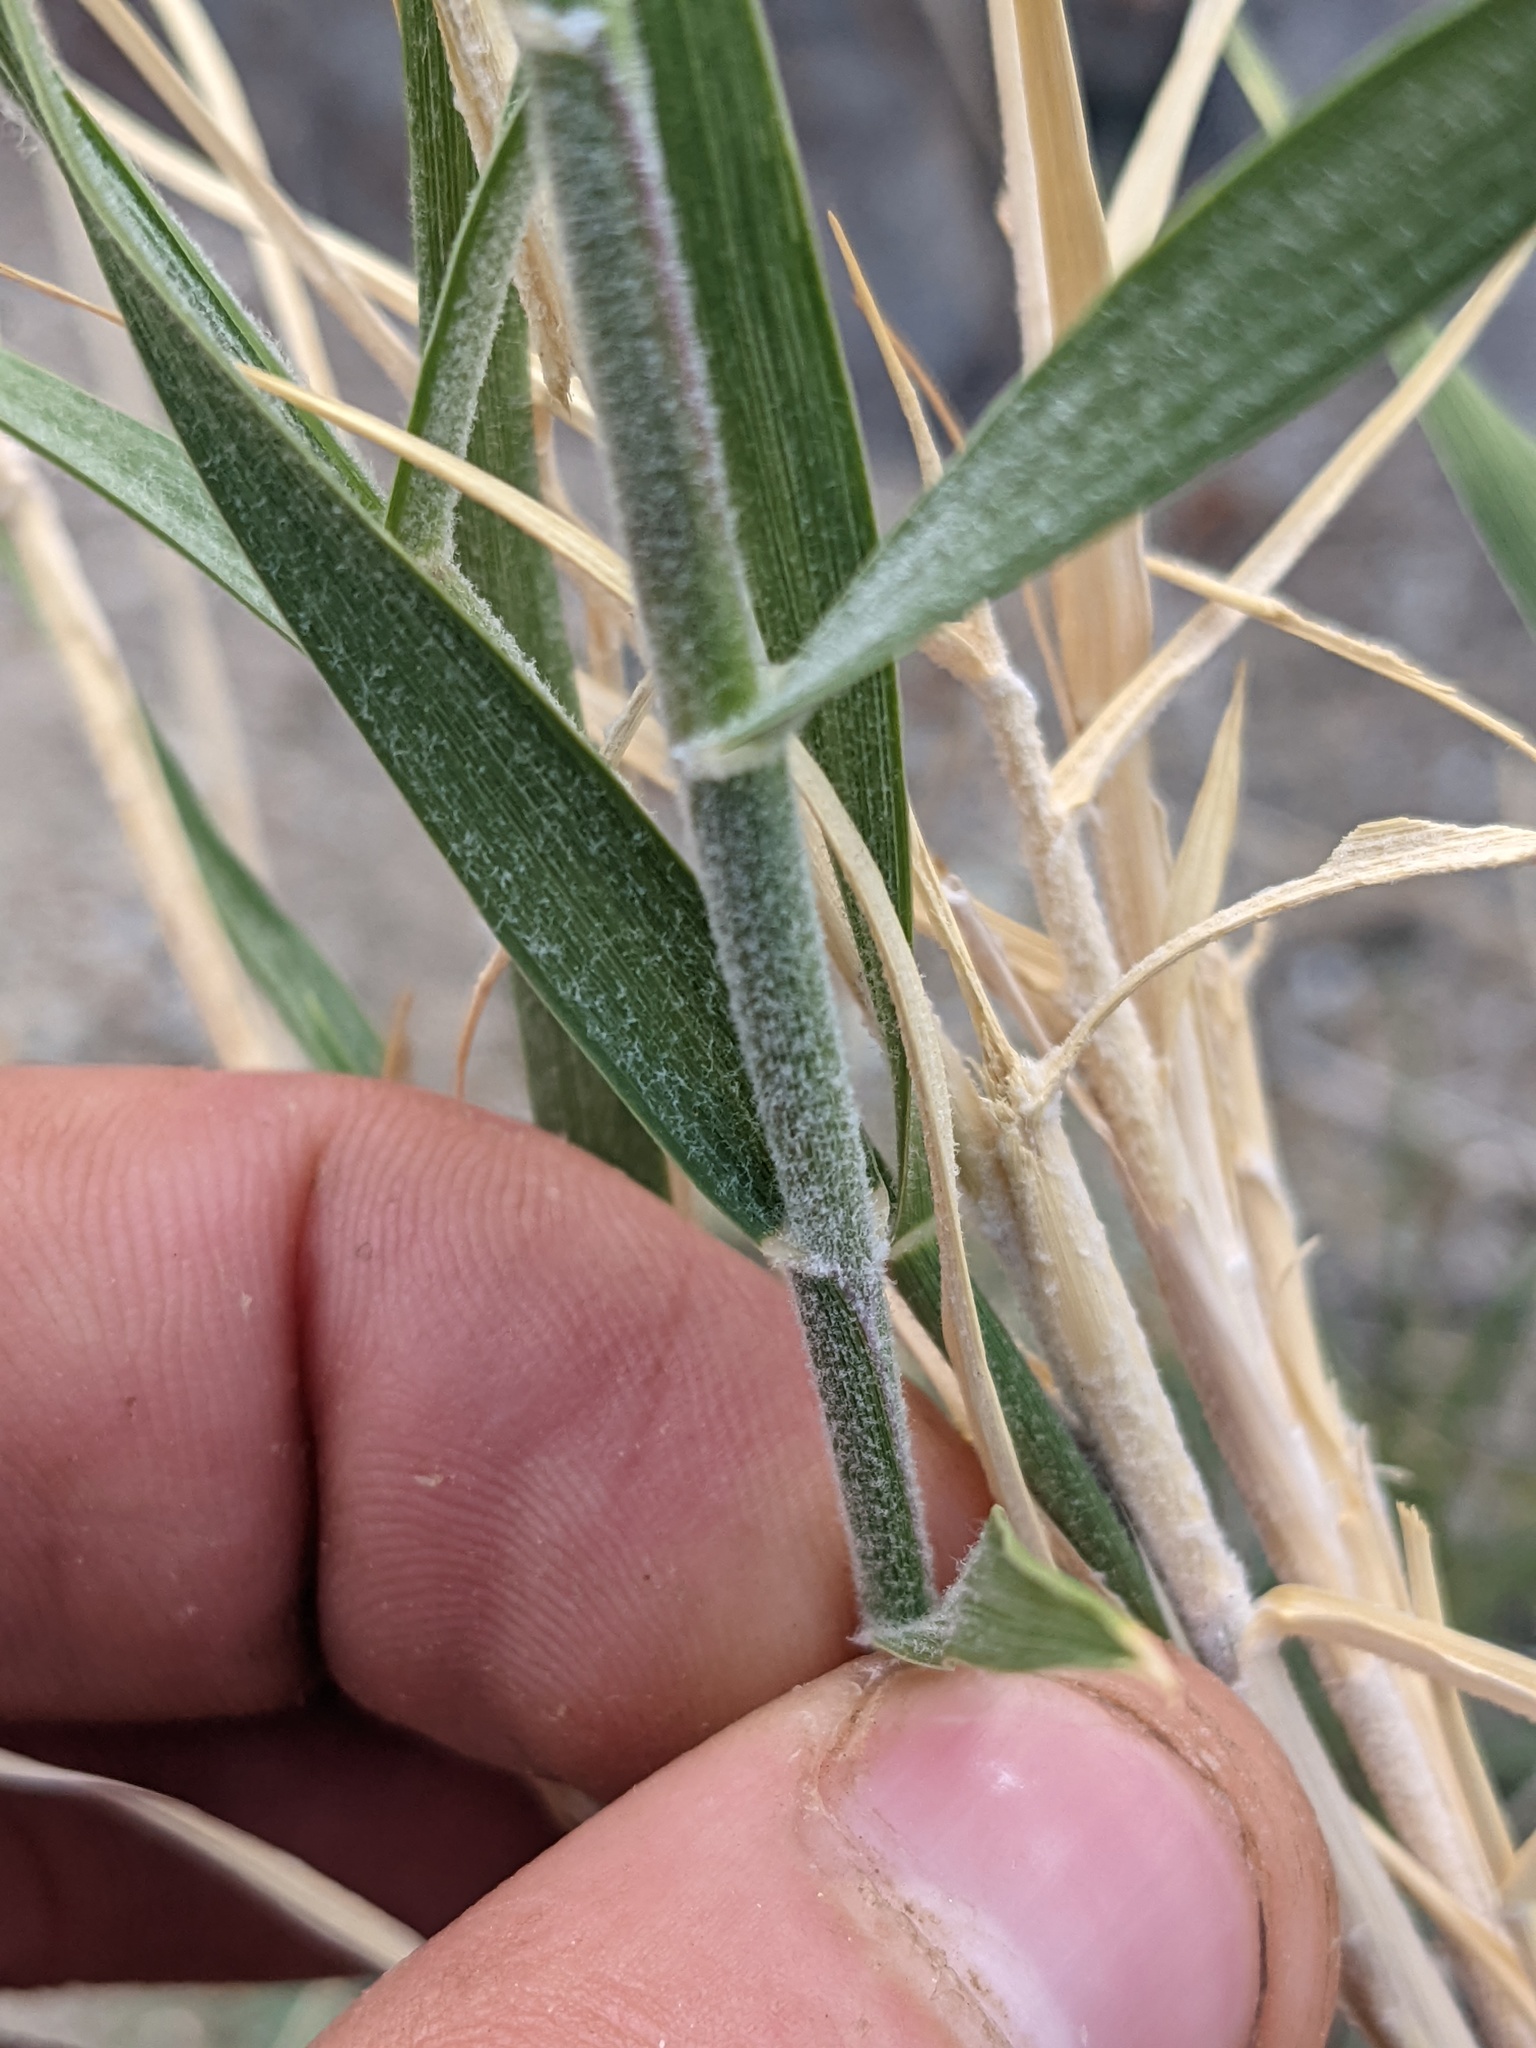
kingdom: Plantae
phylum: Tracheophyta
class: Liliopsida
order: Poales
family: Poaceae
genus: Hilaria
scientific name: Hilaria rigida
